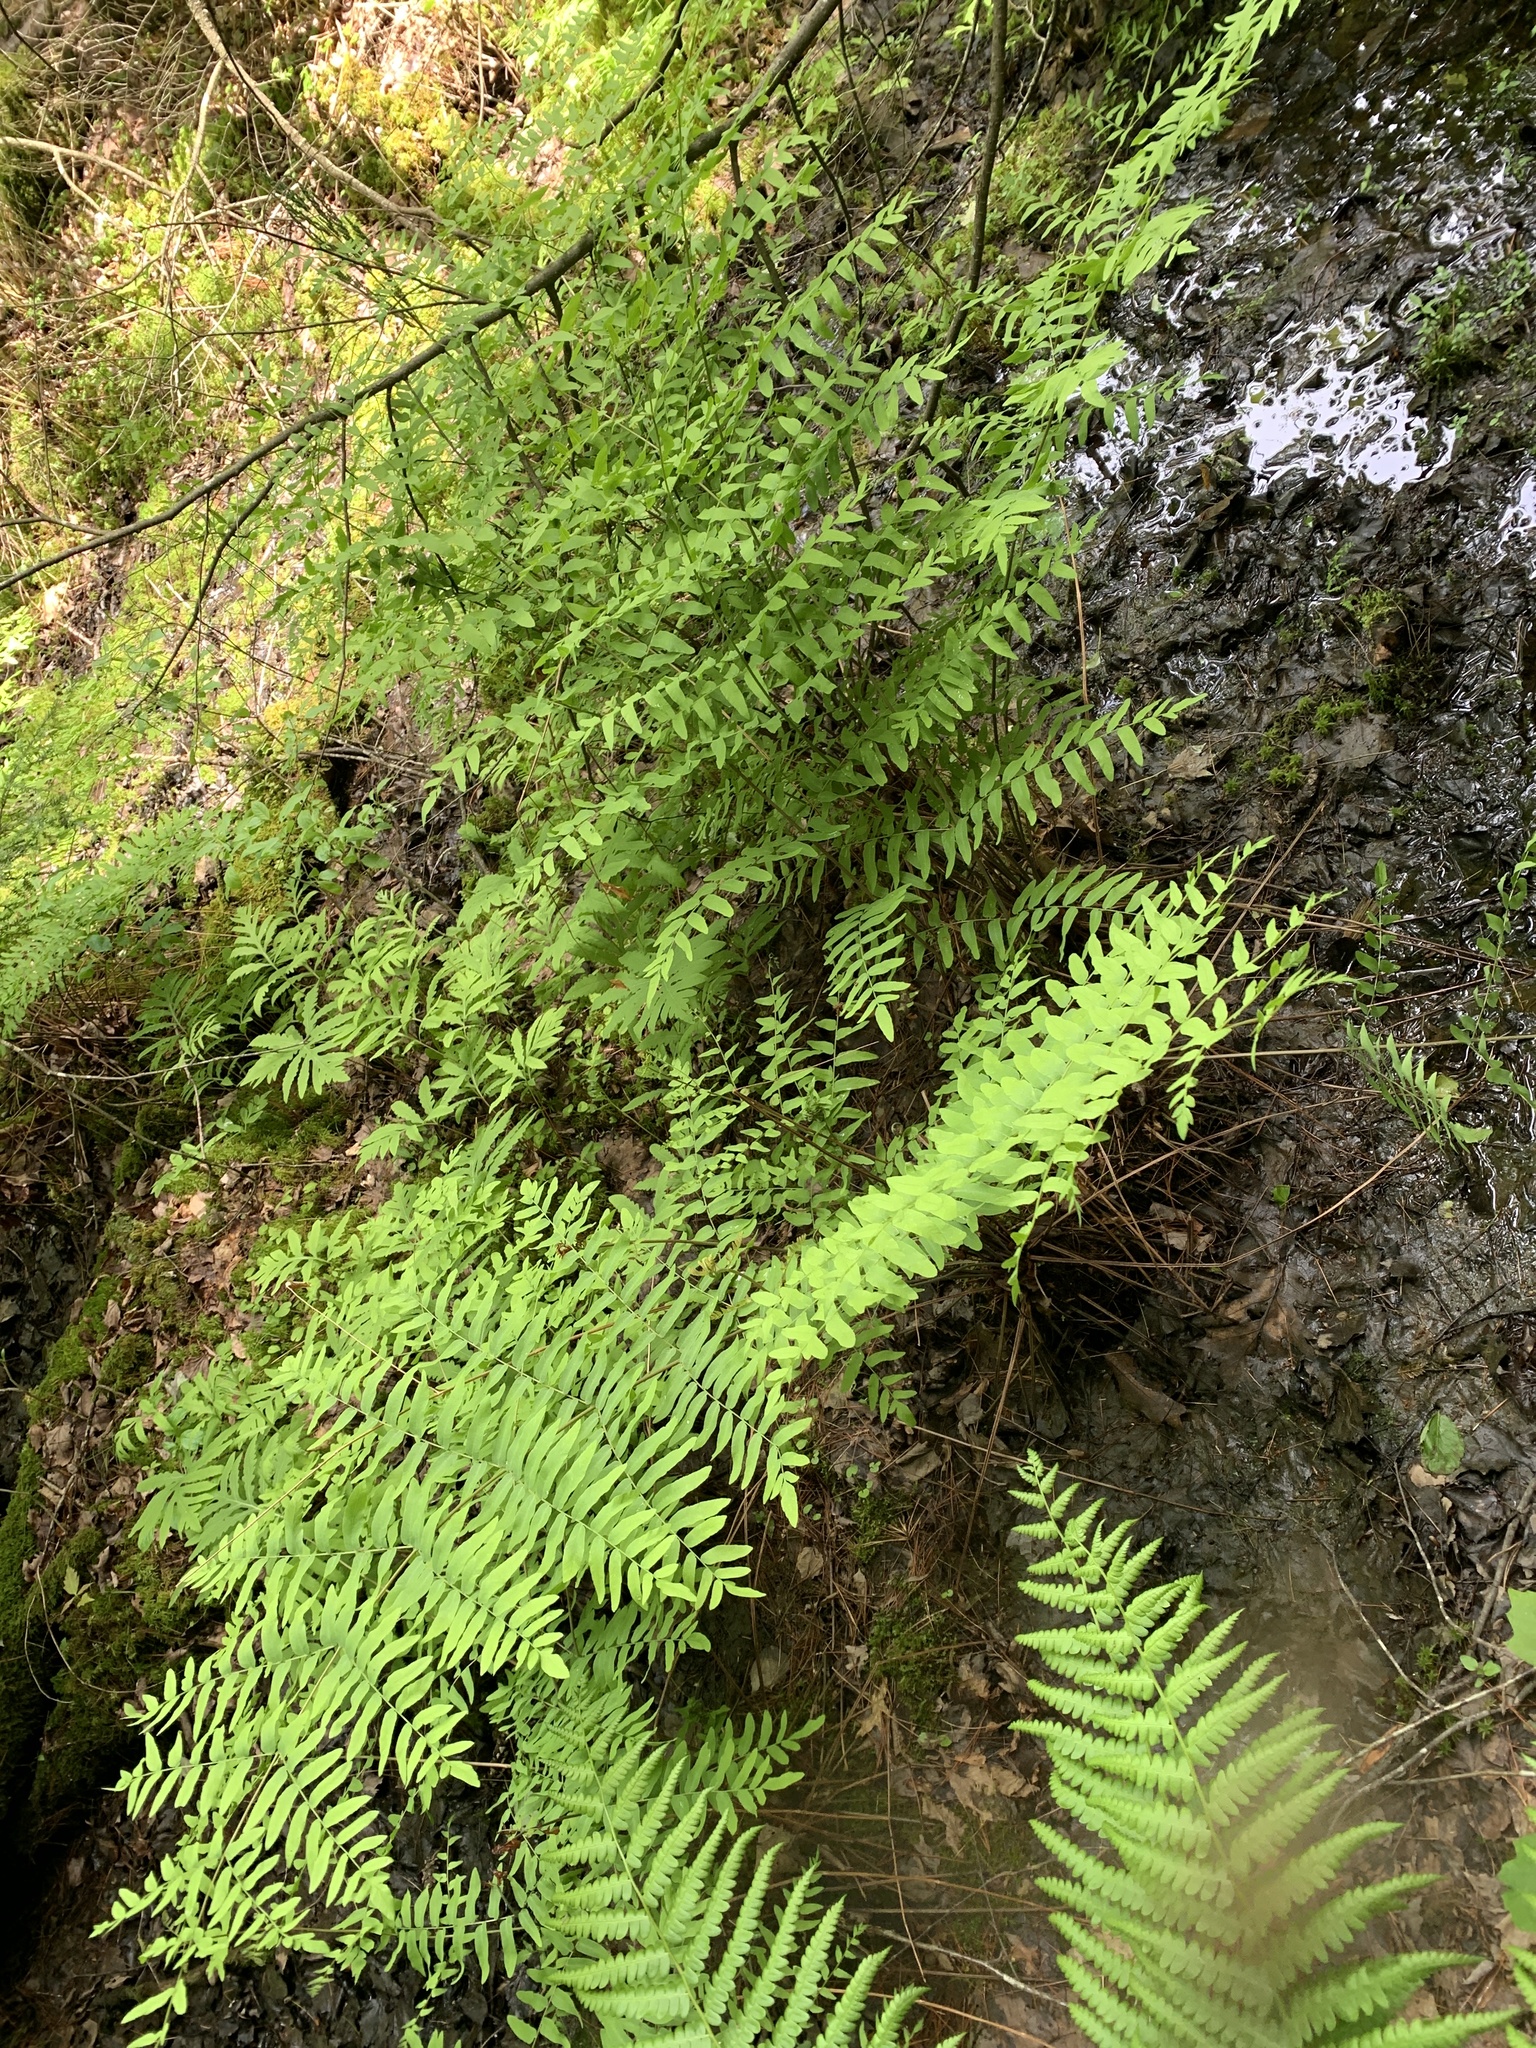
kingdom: Plantae
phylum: Tracheophyta
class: Polypodiopsida
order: Osmundales
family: Osmundaceae
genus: Osmunda
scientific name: Osmunda spectabilis
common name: American royal fern
